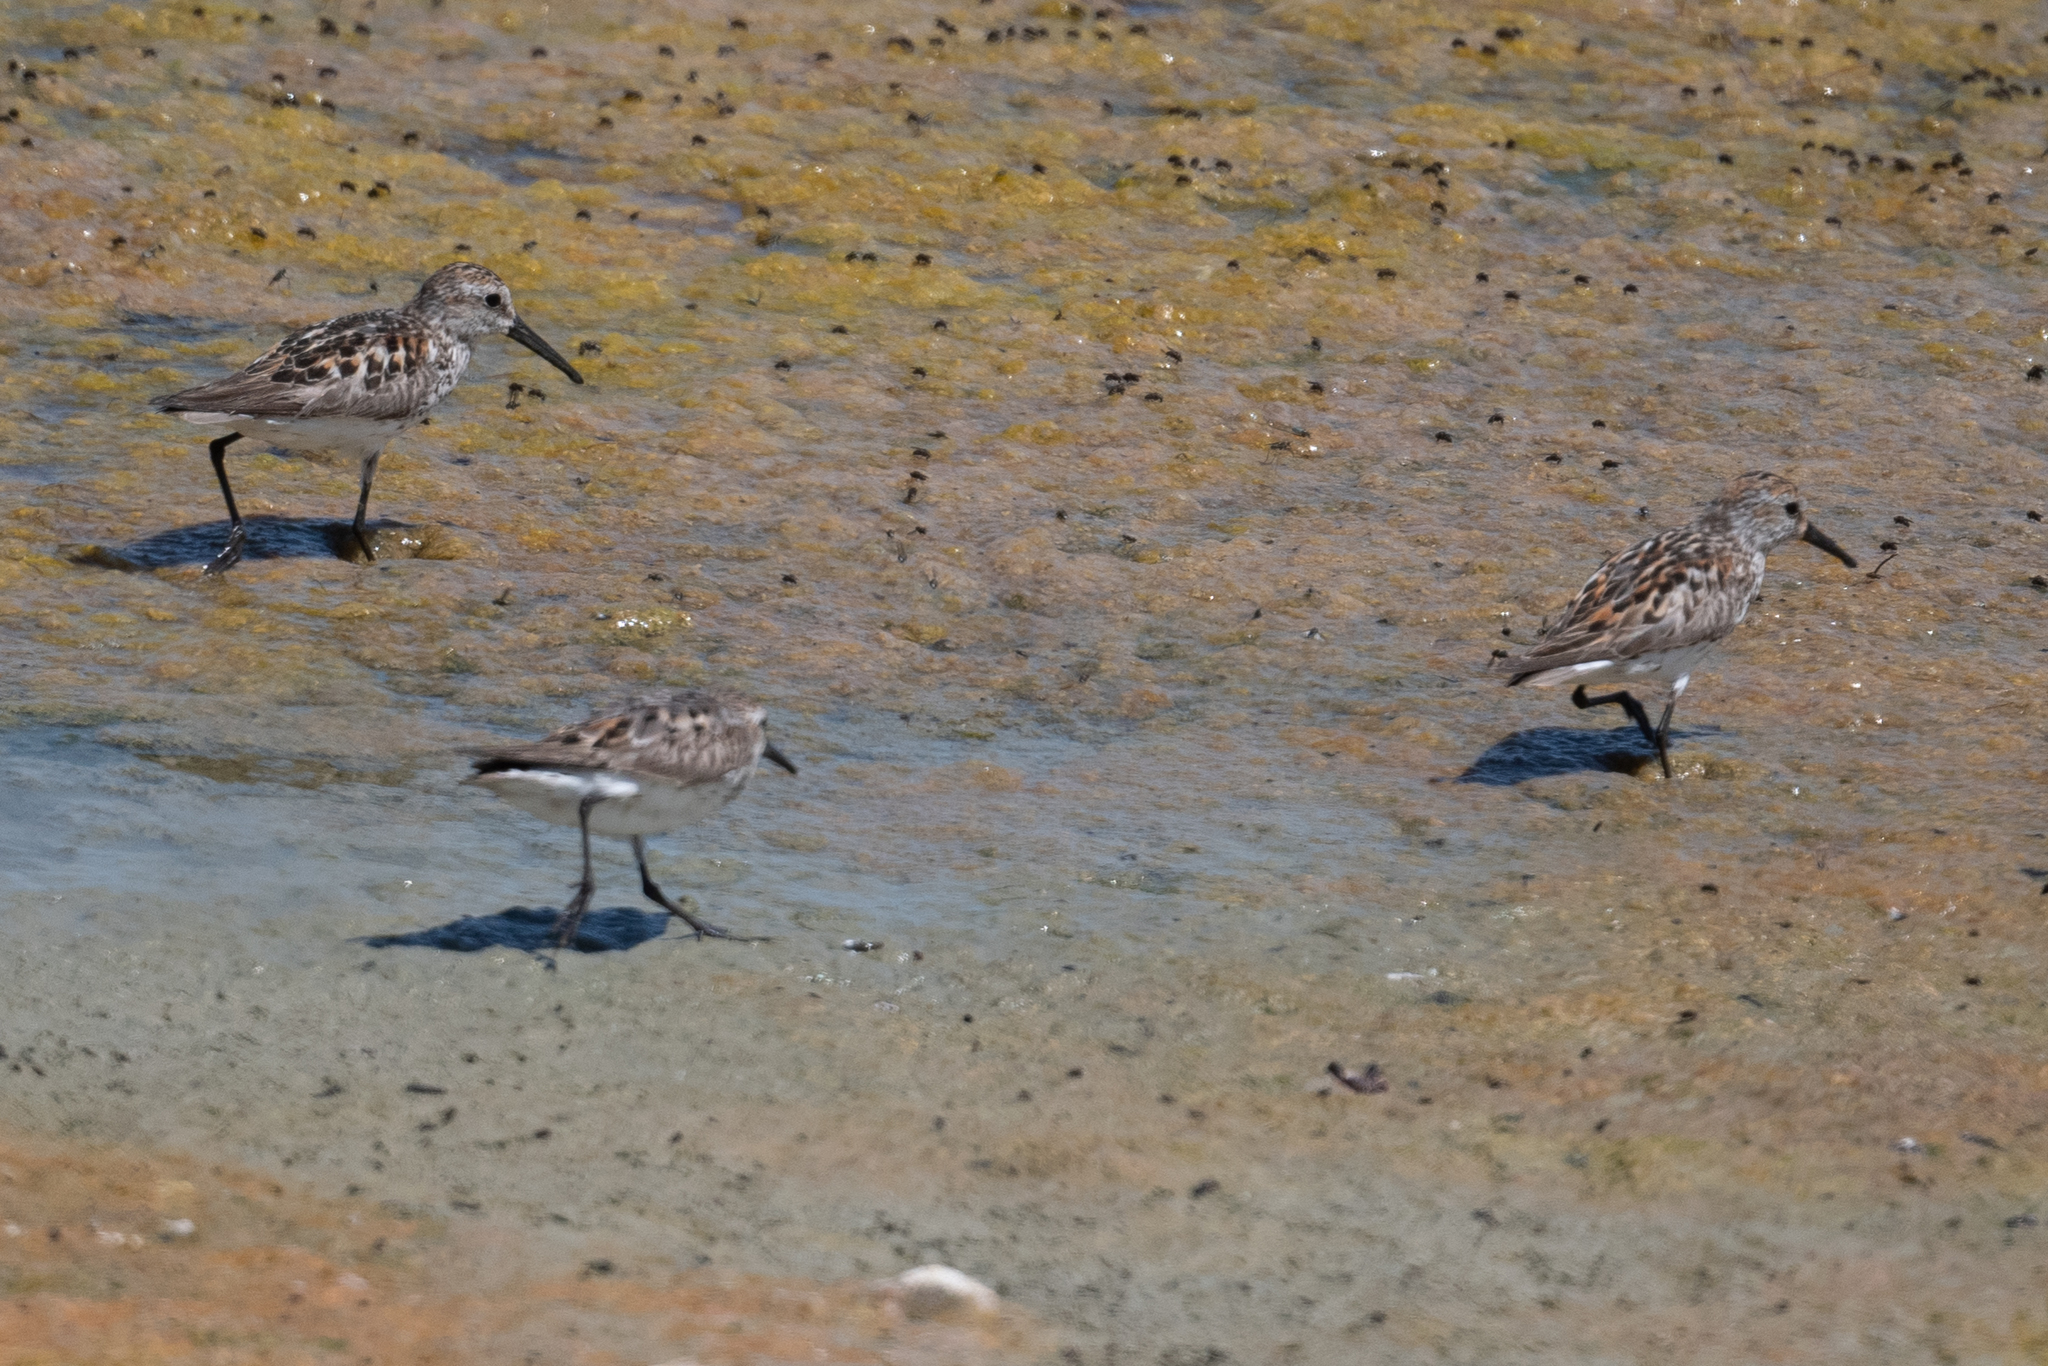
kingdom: Animalia
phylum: Chordata
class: Aves
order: Charadriiformes
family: Scolopacidae
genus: Calidris
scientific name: Calidris mauri
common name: Western sandpiper
